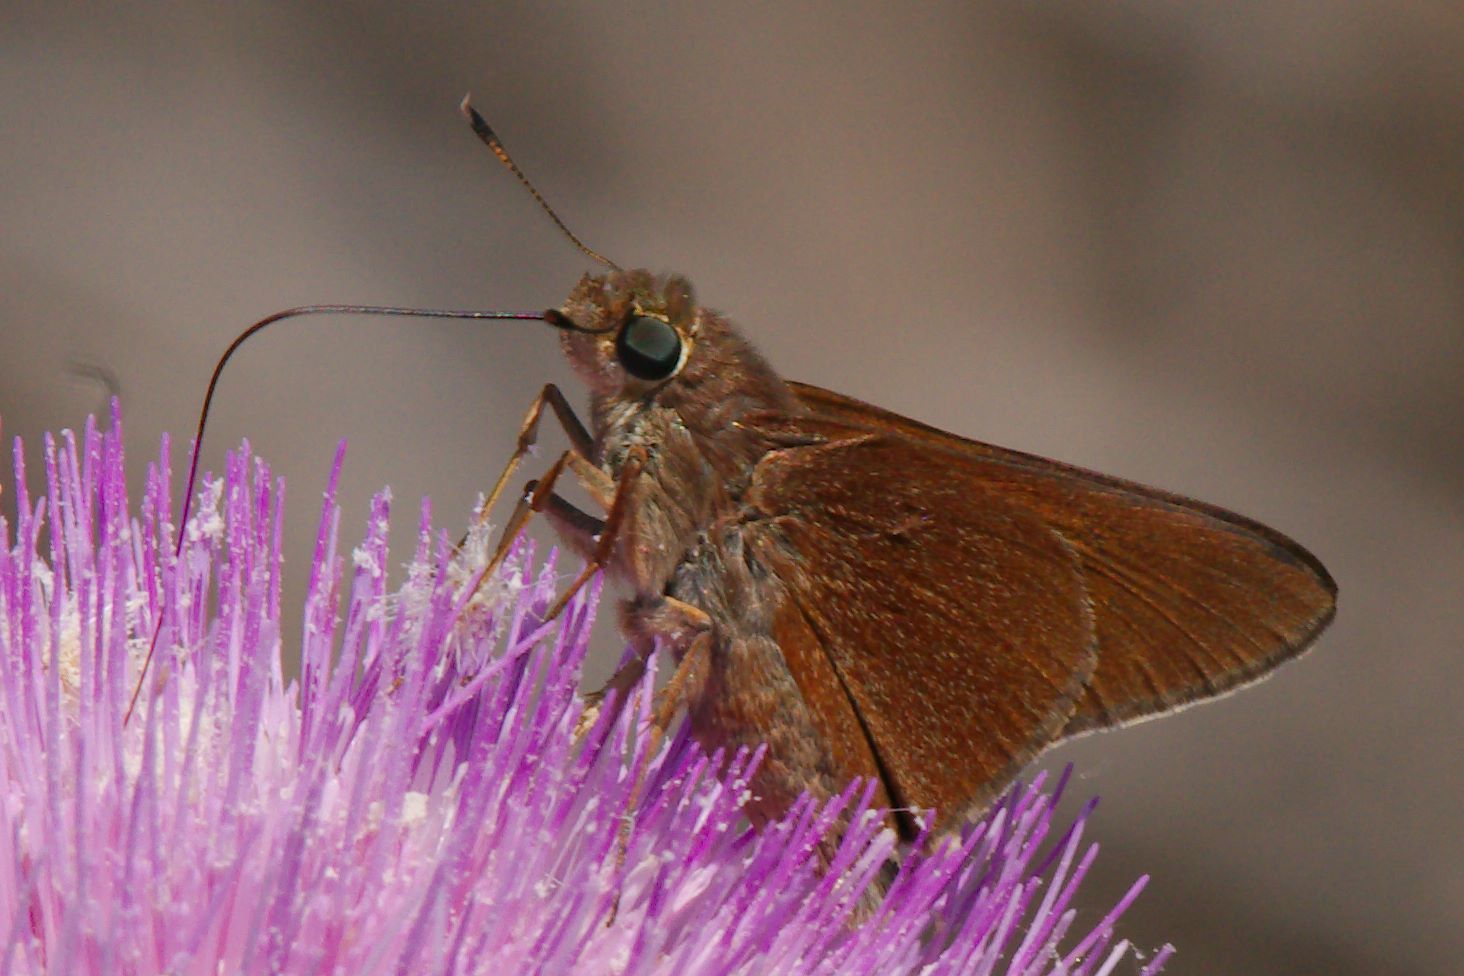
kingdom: Animalia
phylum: Arthropoda
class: Insecta
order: Lepidoptera
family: Hesperiidae
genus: Asbolis
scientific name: Asbolis capucinus
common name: Monk skipper
